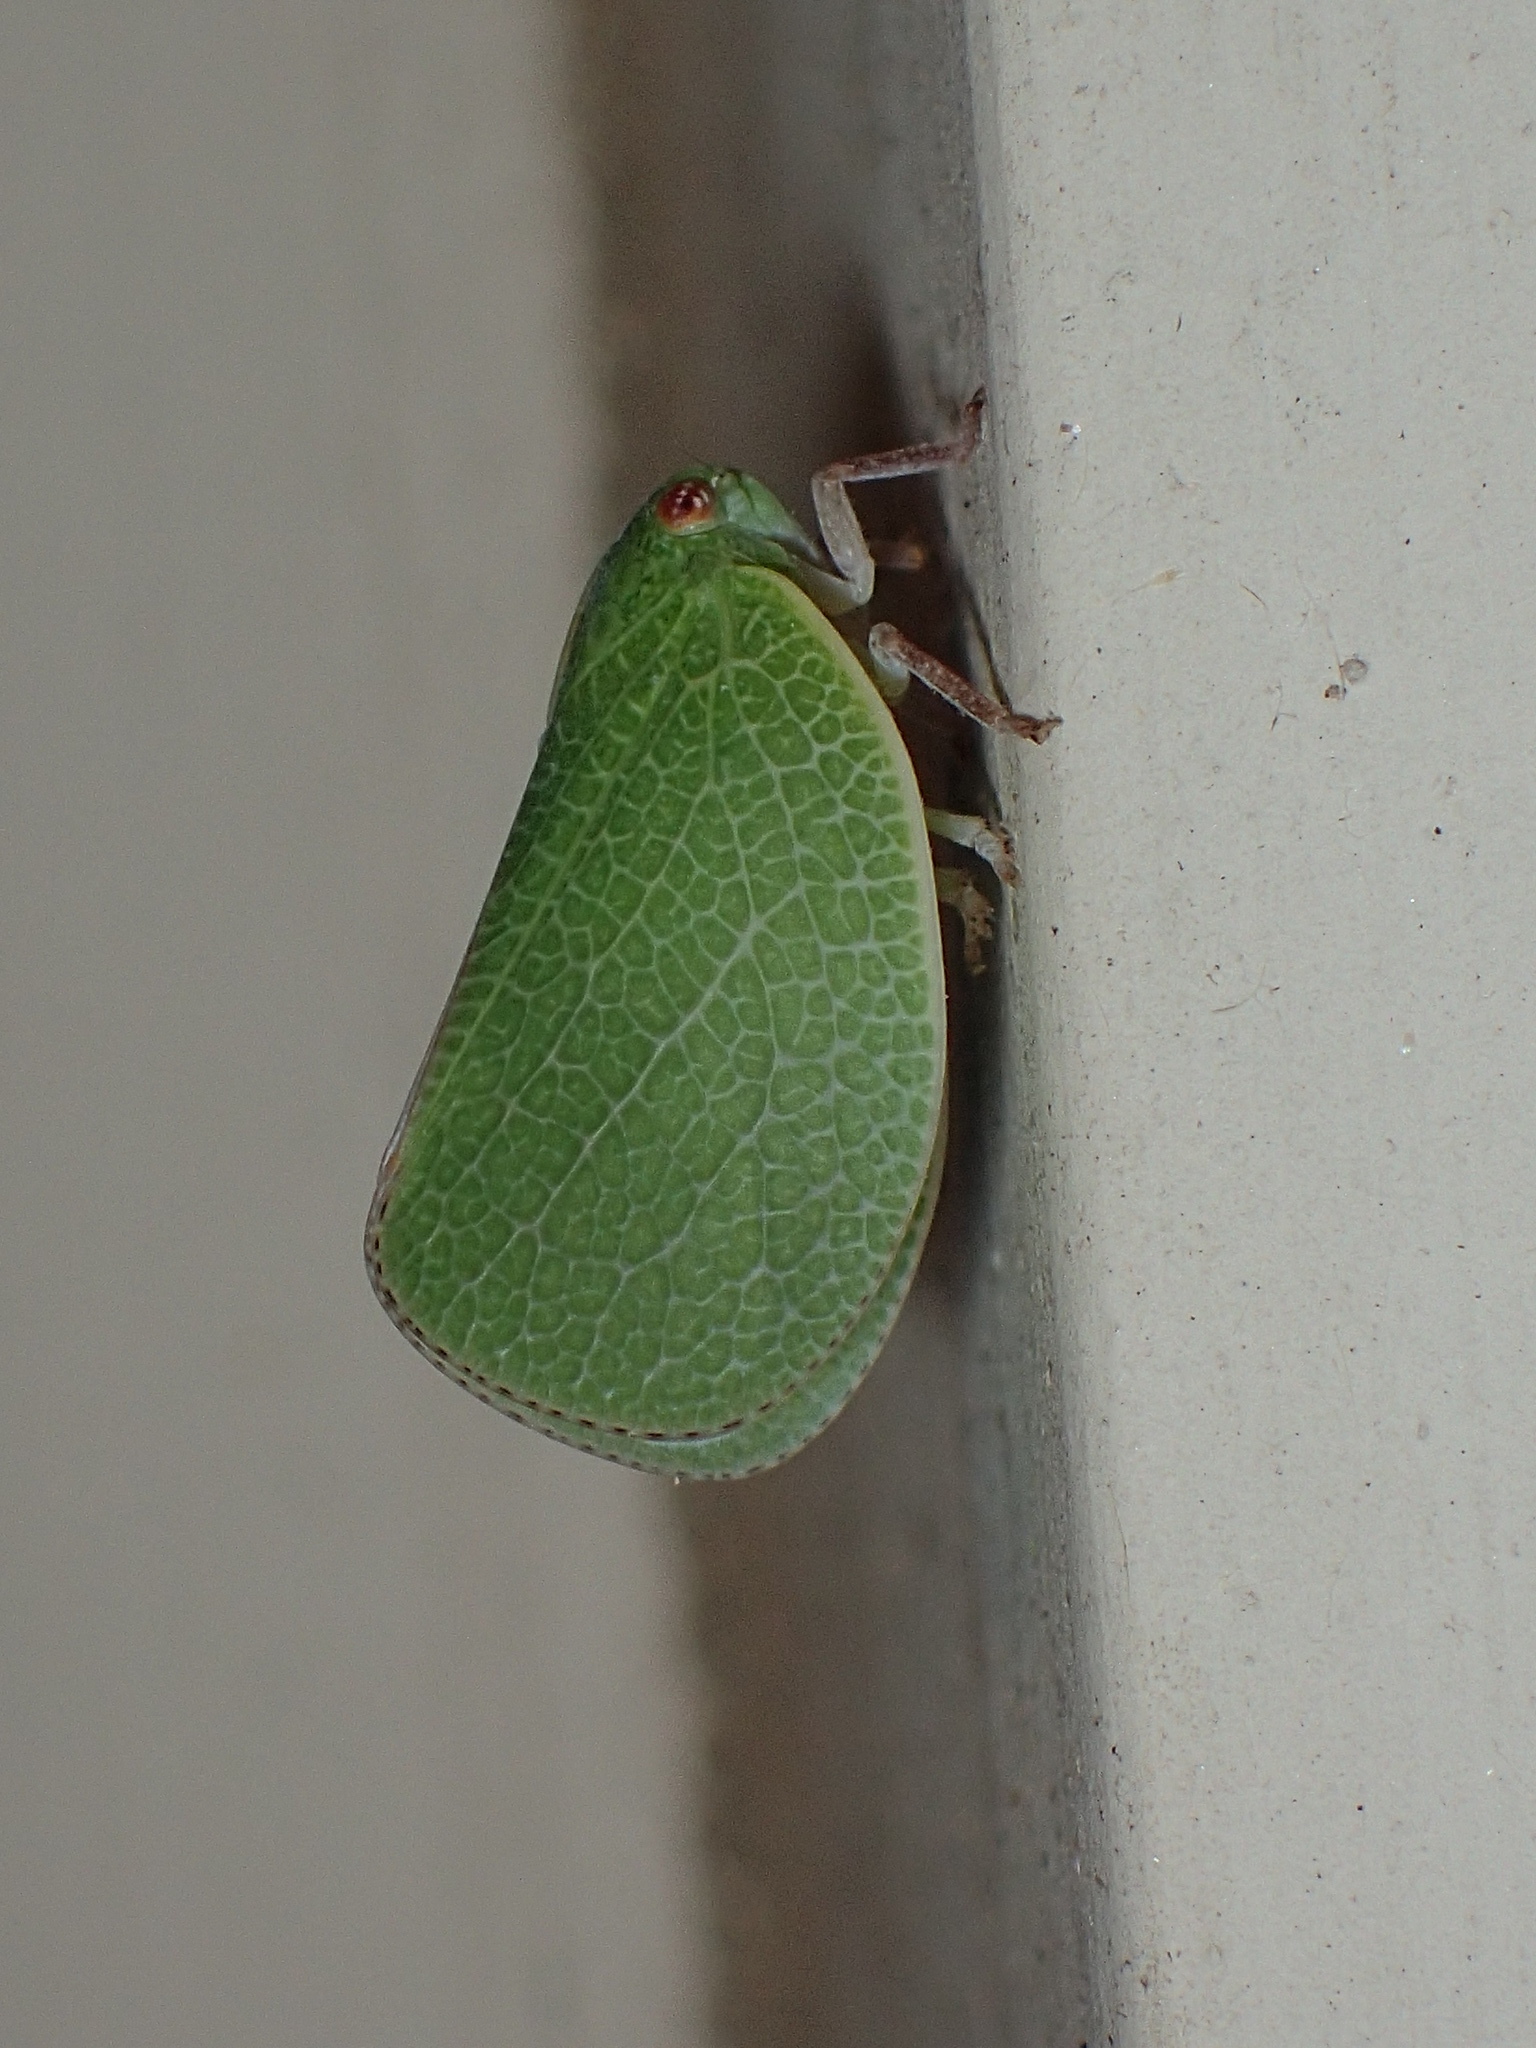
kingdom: Animalia
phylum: Arthropoda
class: Insecta
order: Hemiptera
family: Acanaloniidae
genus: Acanalonia
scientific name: Acanalonia servillei
